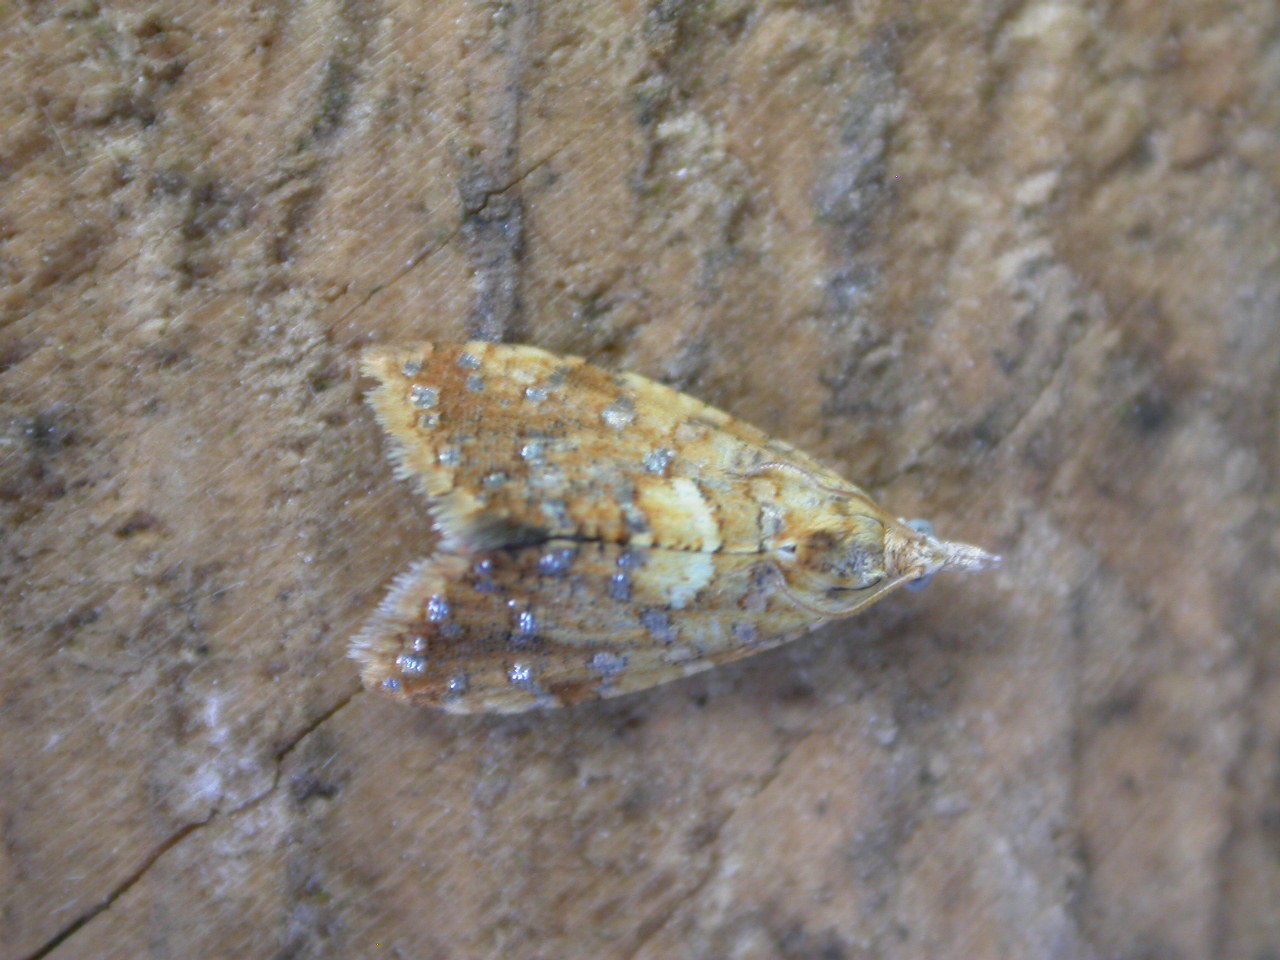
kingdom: Animalia
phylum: Arthropoda
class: Insecta
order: Lepidoptera
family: Tortricidae
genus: Pseudargyrotoza
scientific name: Pseudargyrotoza conwagana
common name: Yellow-spot twist
